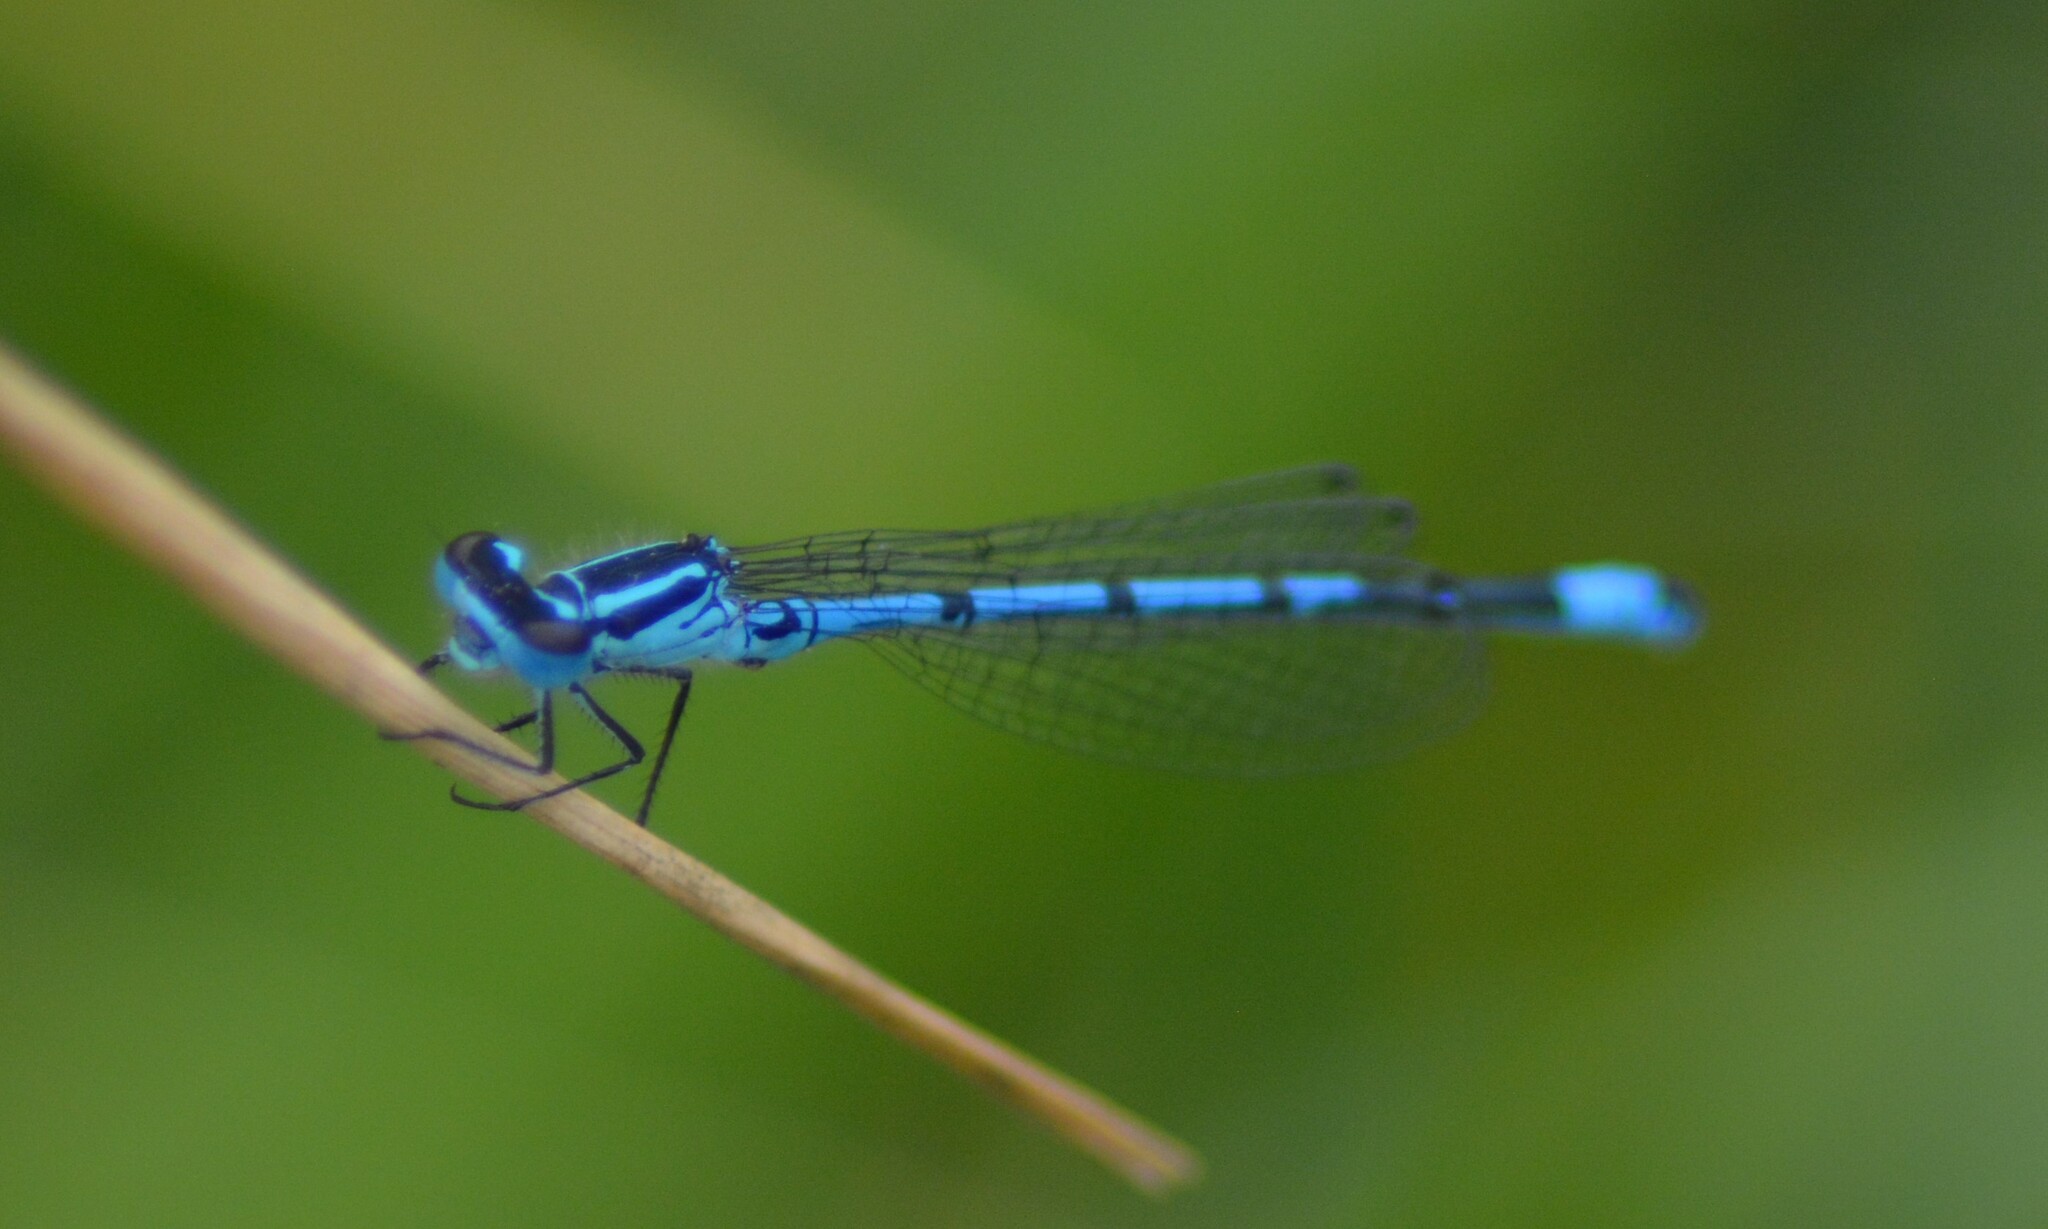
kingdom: Animalia
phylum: Arthropoda
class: Insecta
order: Odonata
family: Coenagrionidae
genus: Coenagrion
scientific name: Coenagrion puella
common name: Azure damselfly
